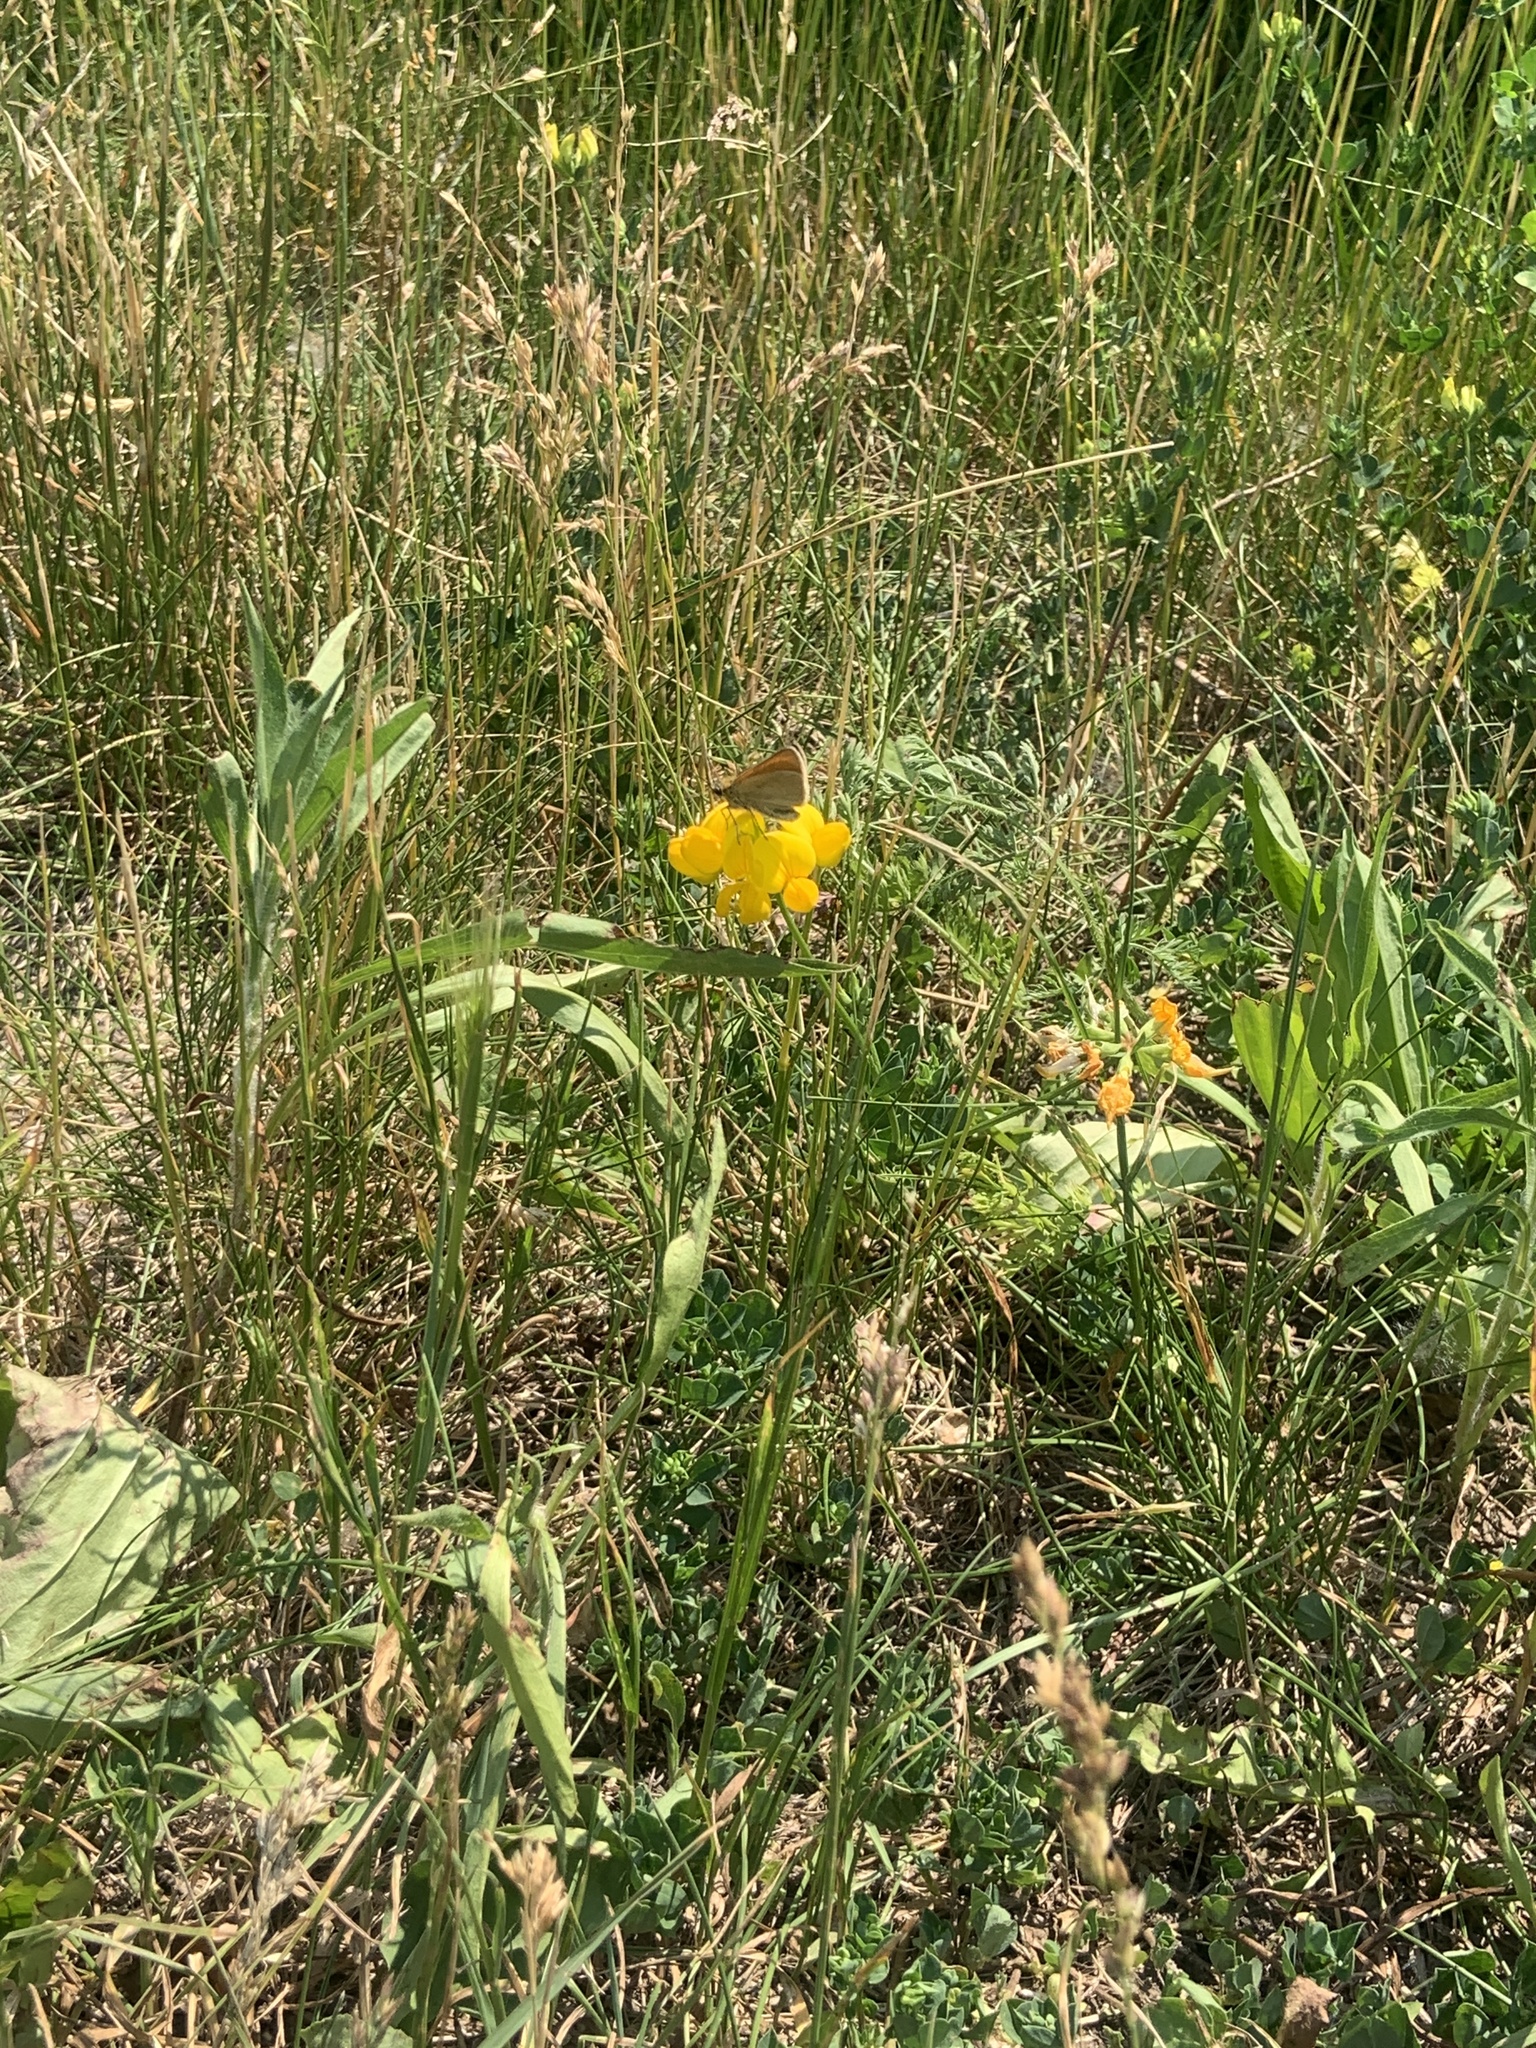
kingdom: Animalia
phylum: Arthropoda
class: Insecta
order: Lepidoptera
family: Hesperiidae
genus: Thymelicus
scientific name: Thymelicus lineola
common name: Essex skipper
